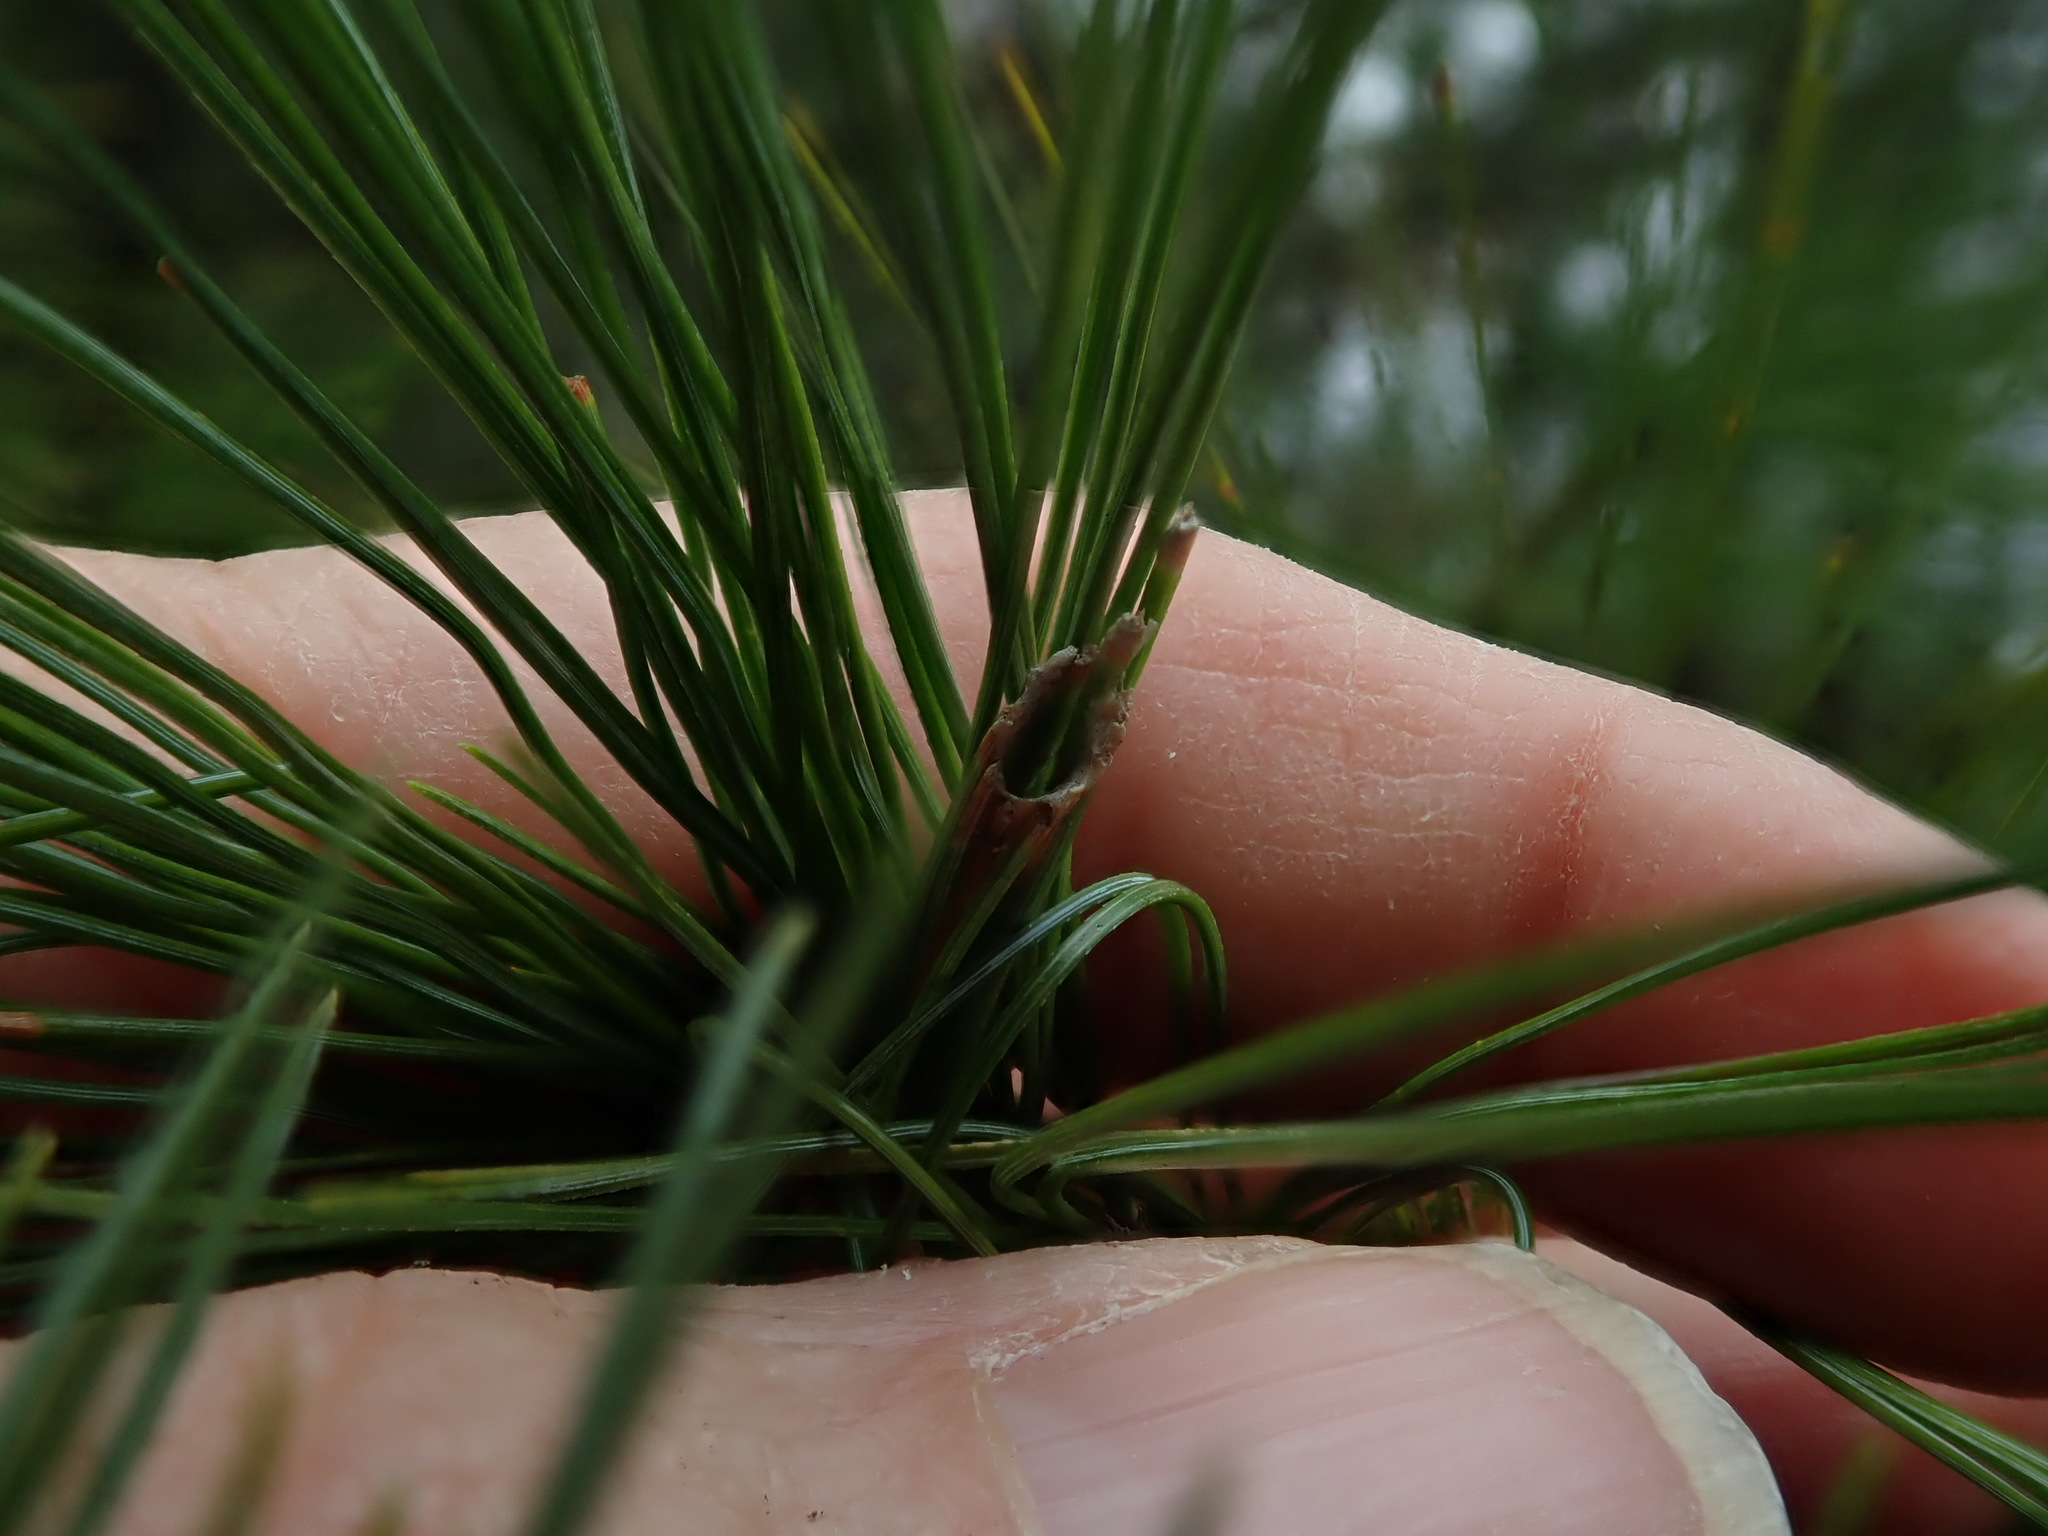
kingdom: Animalia
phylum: Arthropoda
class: Insecta
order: Lepidoptera
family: Tortricidae
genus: Argyrotaenia
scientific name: Argyrotaenia pinatubana
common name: Pine tube moth
